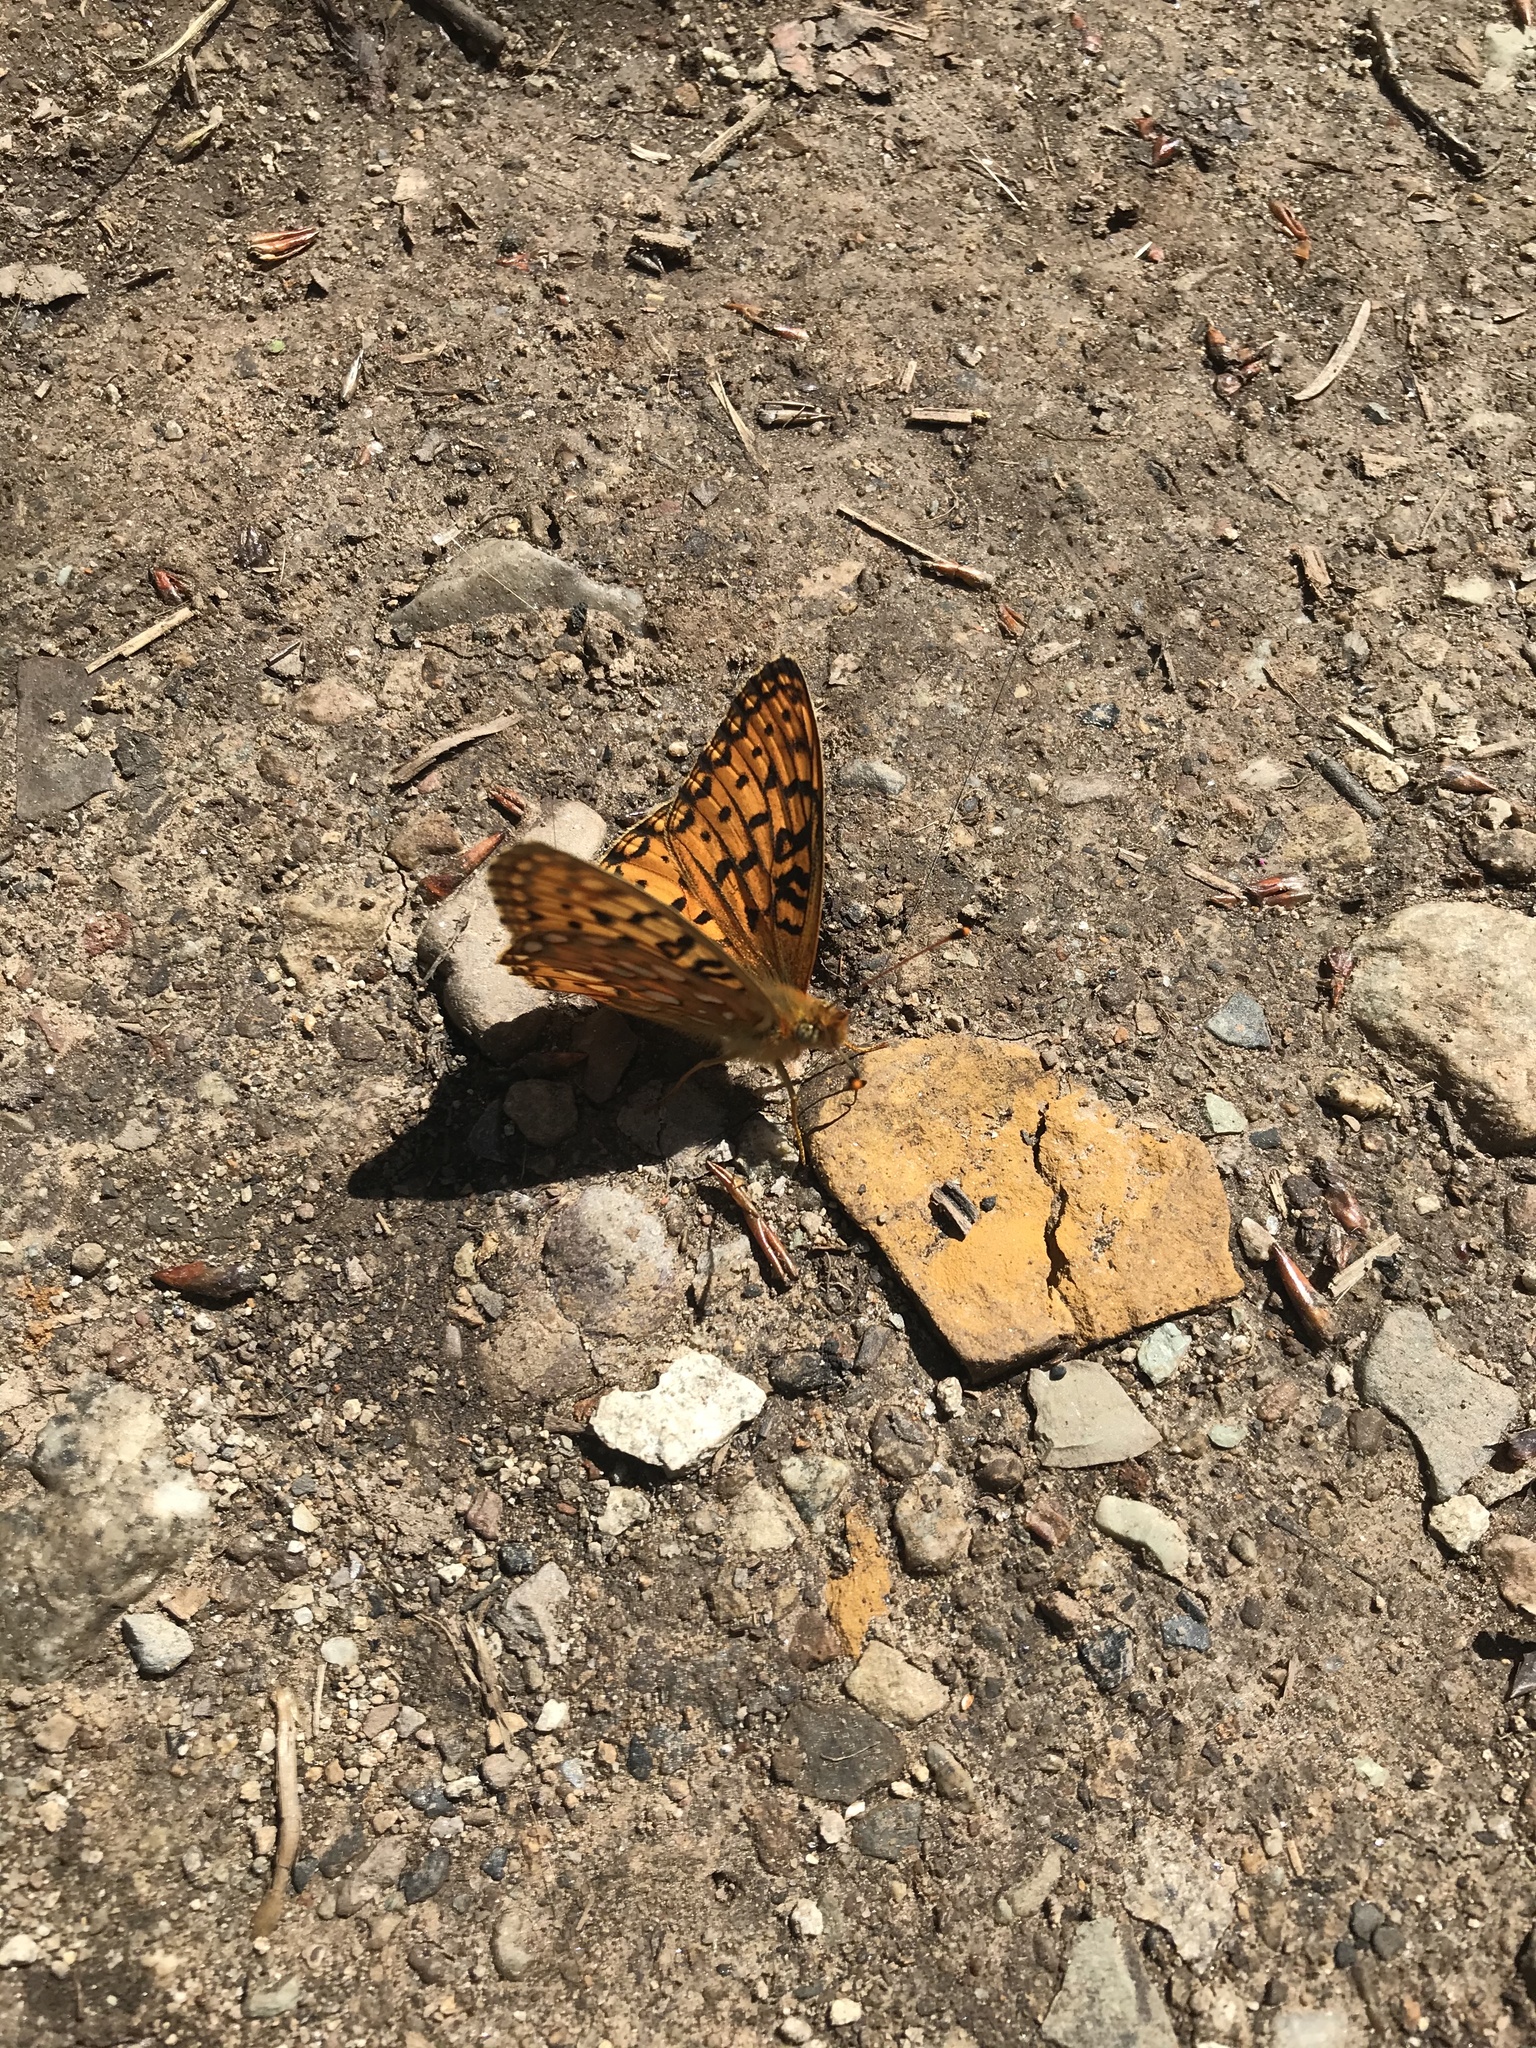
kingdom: Animalia
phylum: Arthropoda
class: Insecta
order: Lepidoptera
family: Nymphalidae
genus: Speyeria
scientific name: Speyeria mormonia
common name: Mormon fritillary
